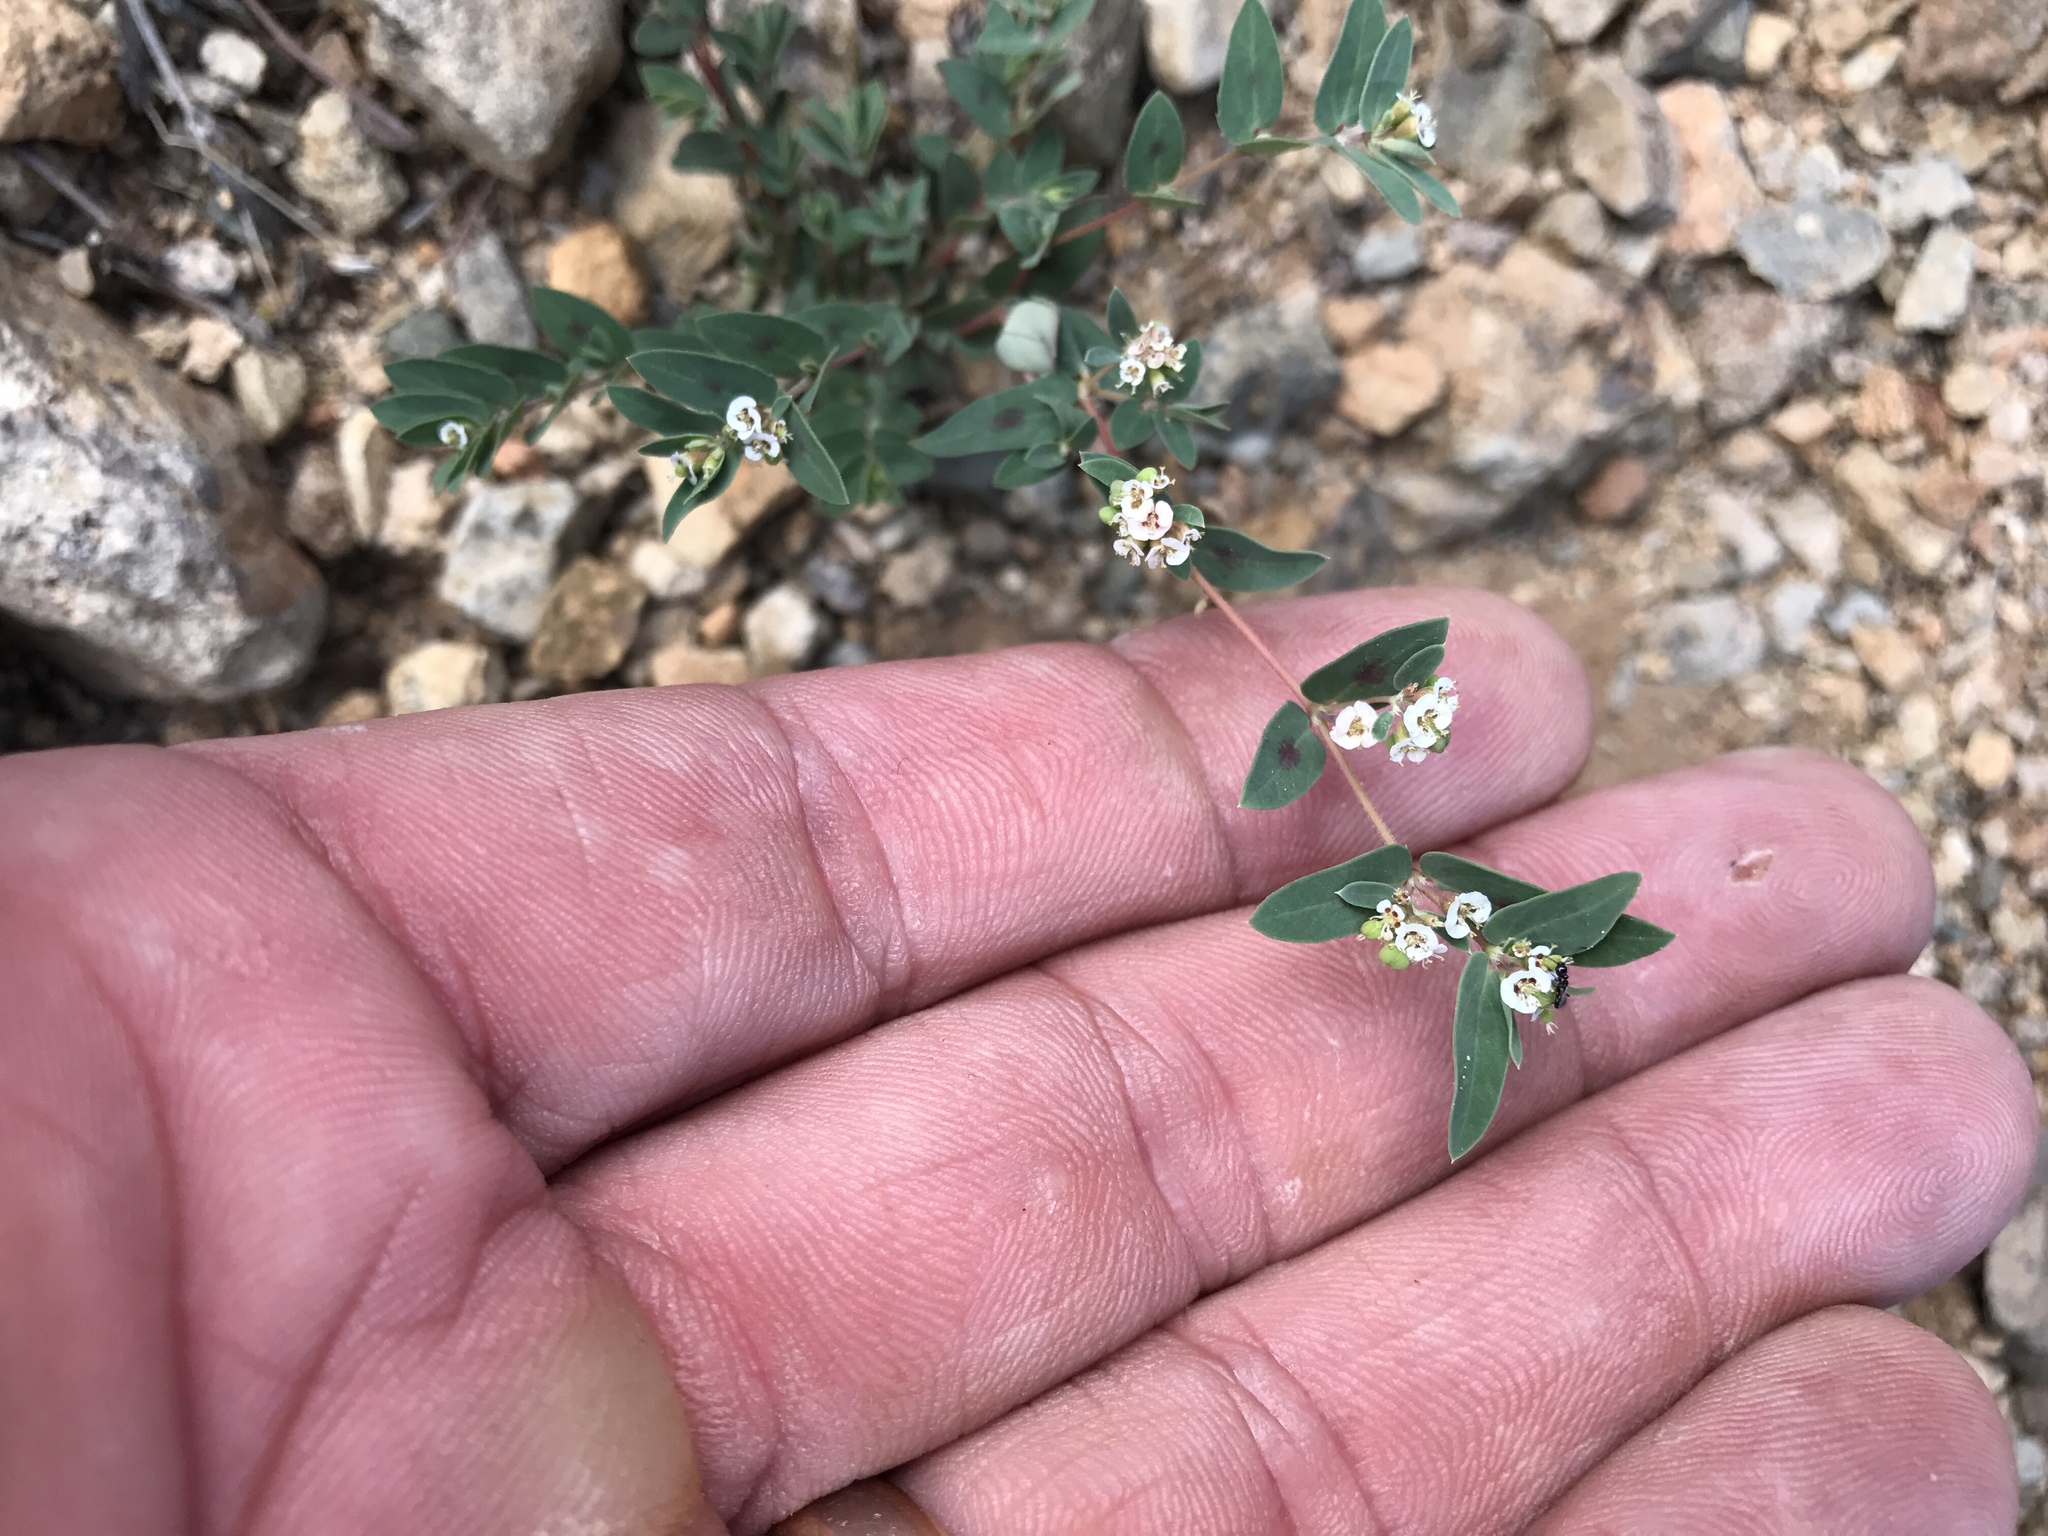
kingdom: Plantae
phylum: Tracheophyta
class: Magnoliopsida
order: Malpighiales
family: Euphorbiaceae
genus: Euphorbia
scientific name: Euphorbia capitellata
